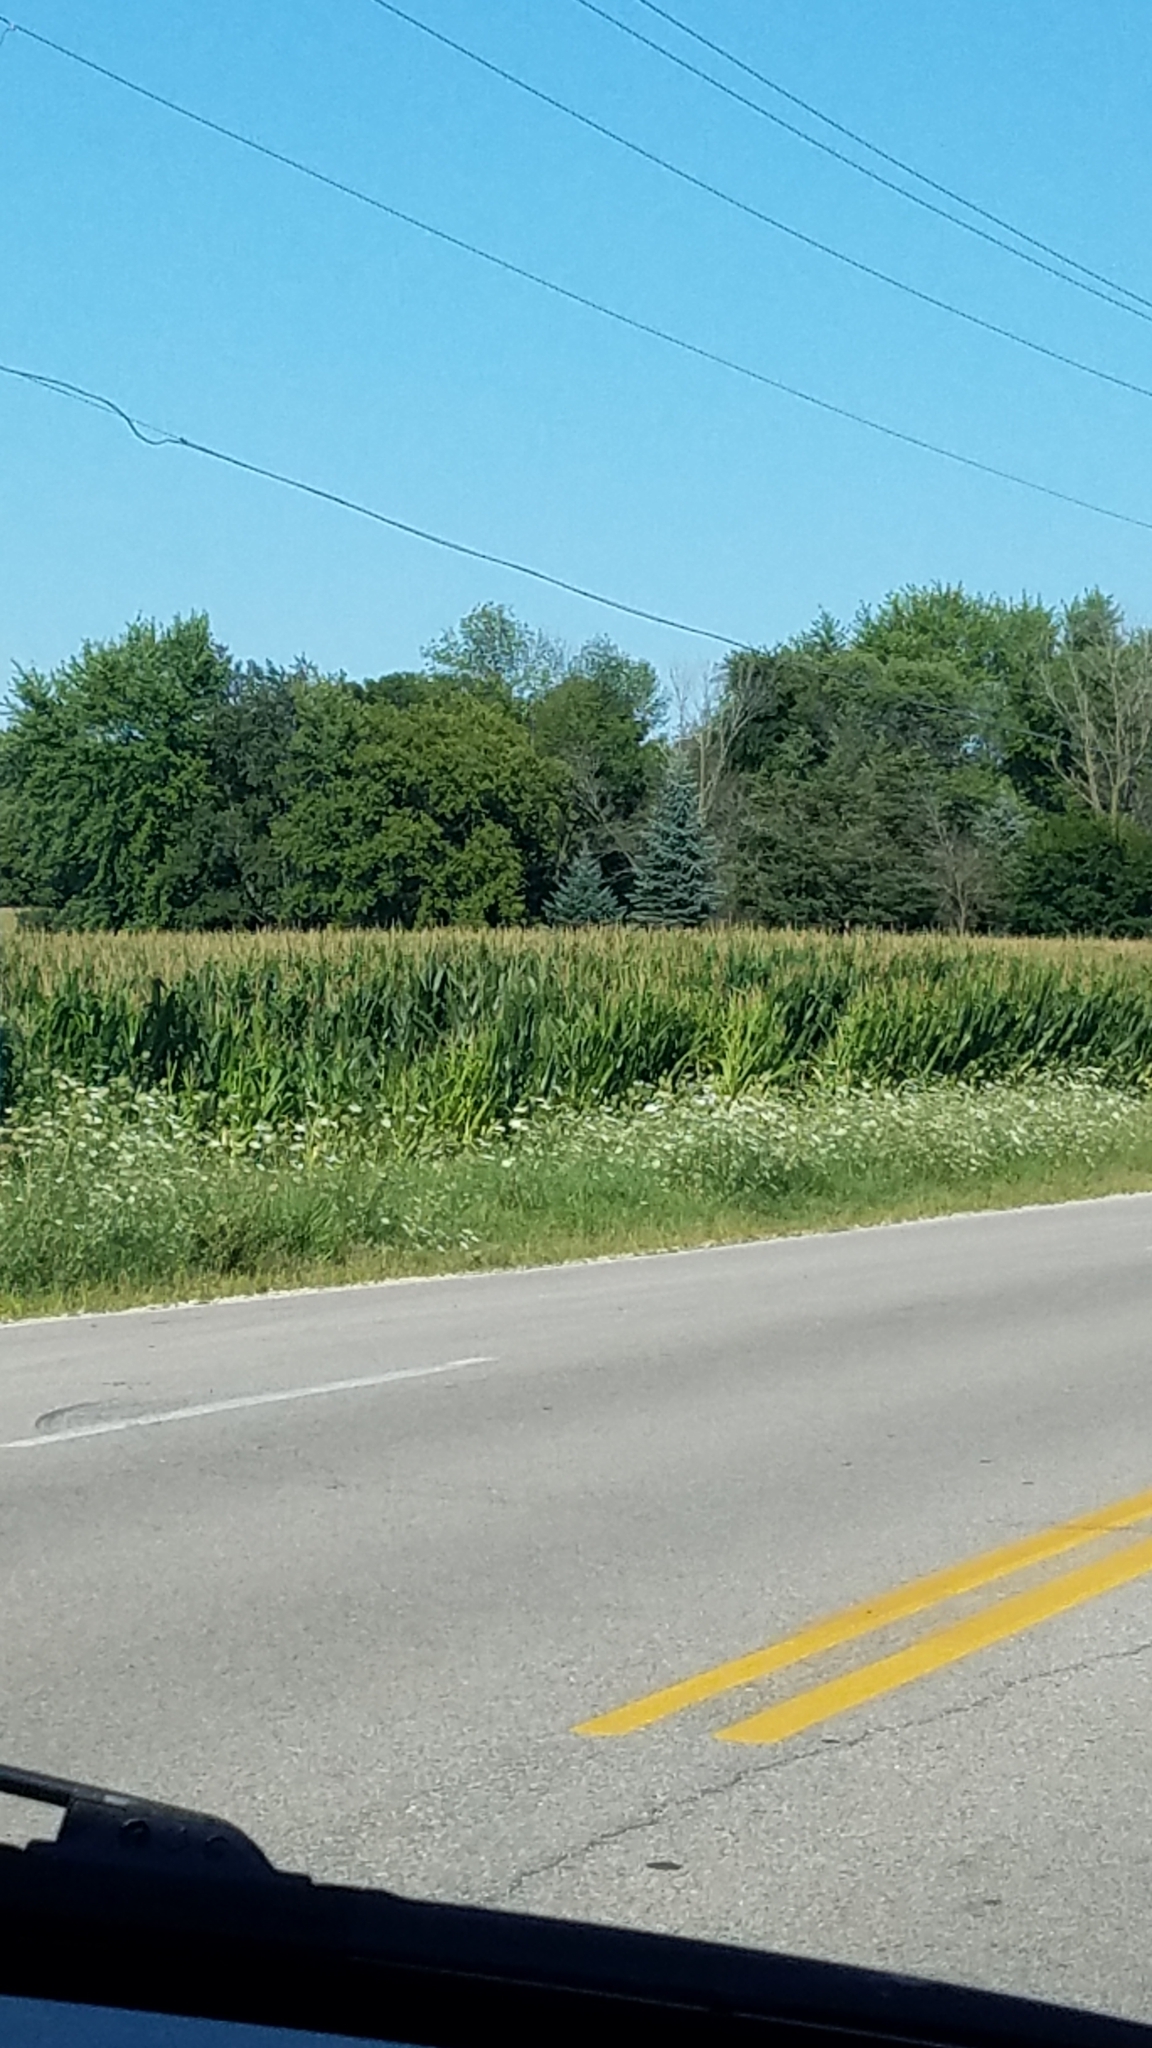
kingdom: Plantae
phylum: Tracheophyta
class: Magnoliopsida
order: Apiales
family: Apiaceae
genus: Daucus
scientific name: Daucus carota
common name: Wild carrot
